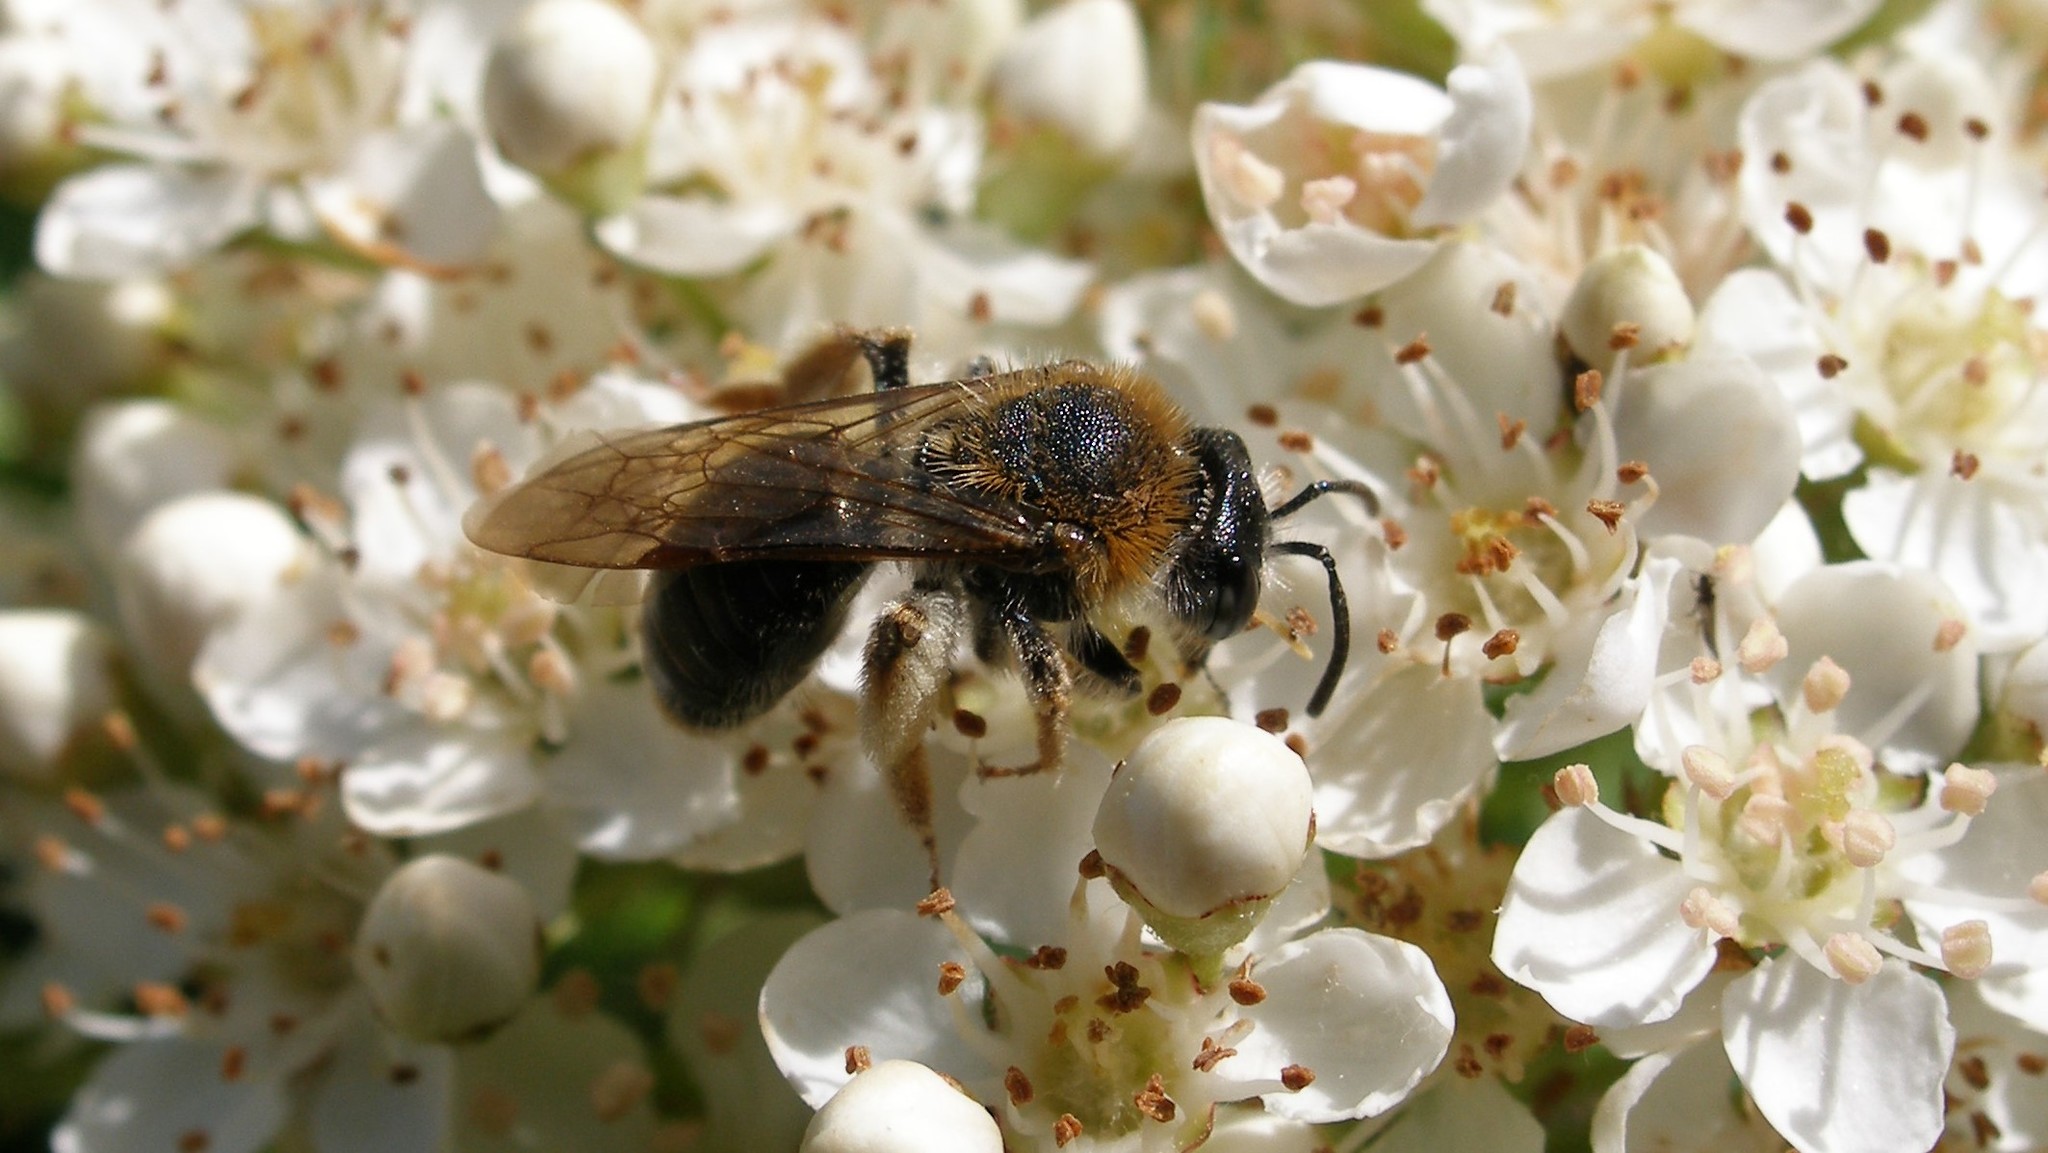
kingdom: Animalia
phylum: Arthropoda
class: Insecta
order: Hymenoptera
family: Andrenidae
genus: Andrena
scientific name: Andrena haemorrhoa
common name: Early mining bee
